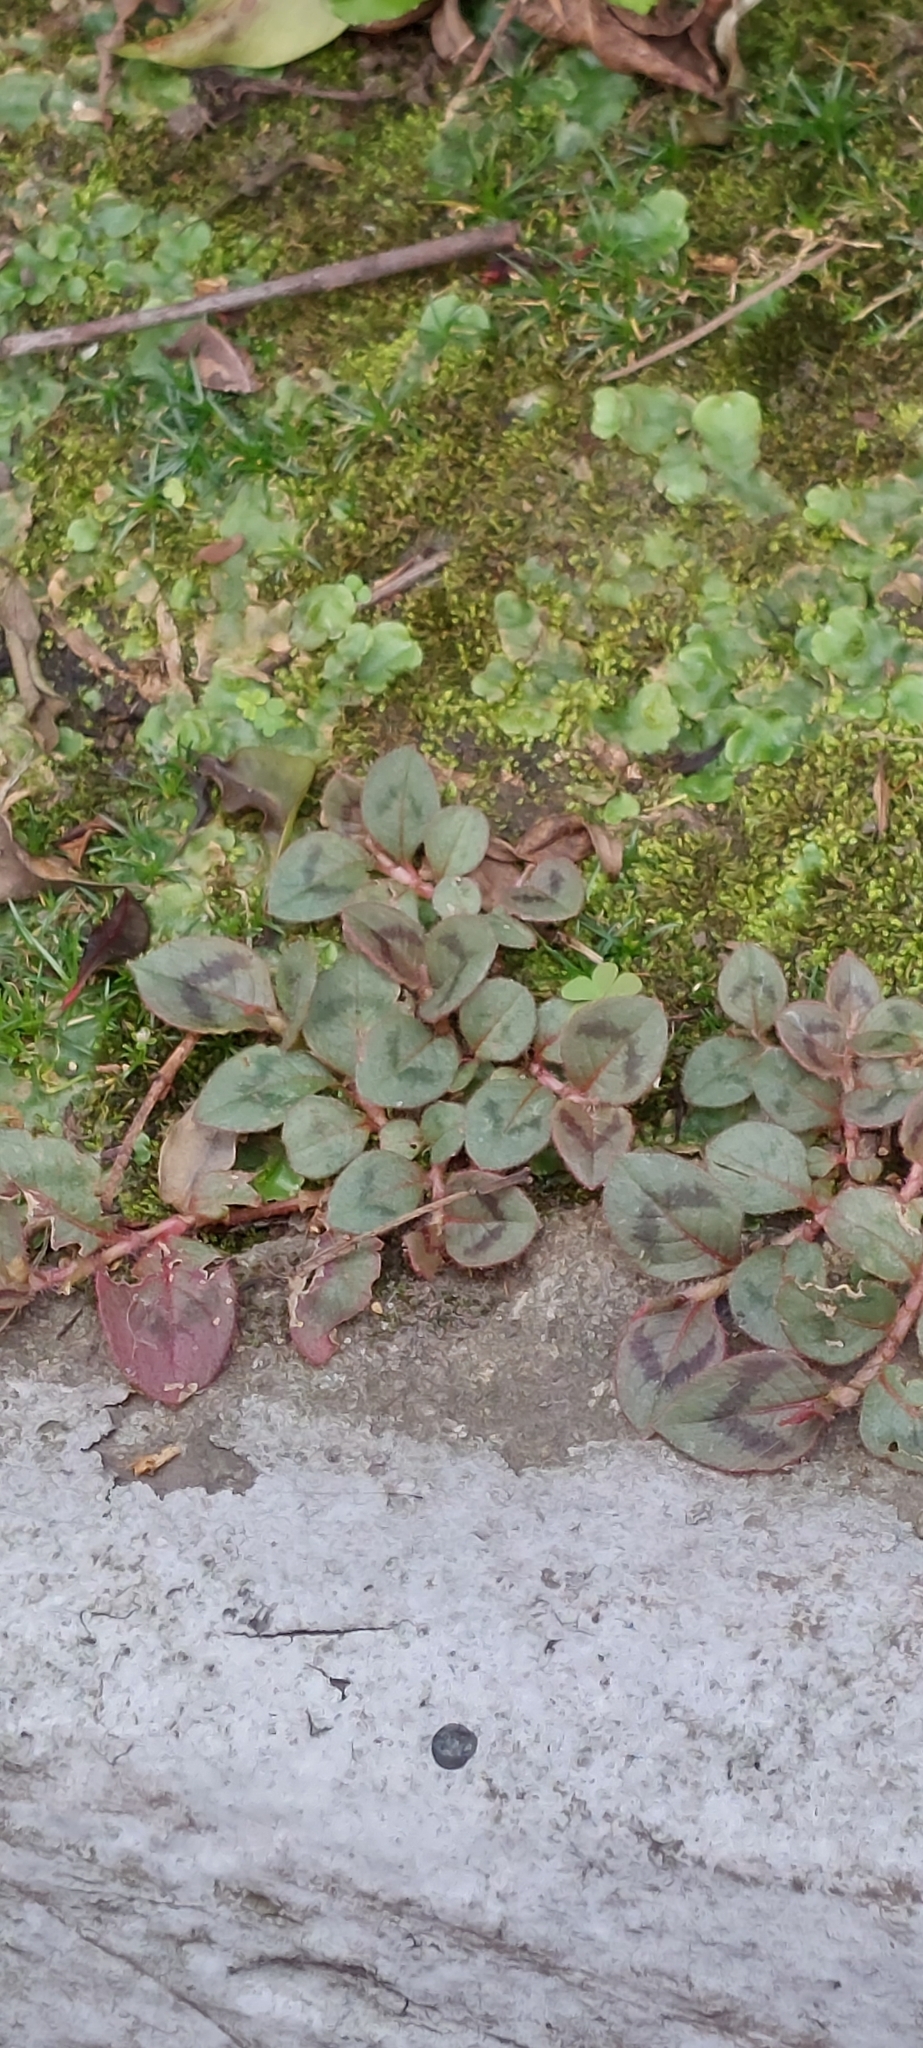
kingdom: Plantae
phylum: Tracheophyta
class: Magnoliopsida
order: Caryophyllales
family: Polygonaceae
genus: Persicaria
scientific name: Persicaria capitata
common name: Pinkhead smartweed
